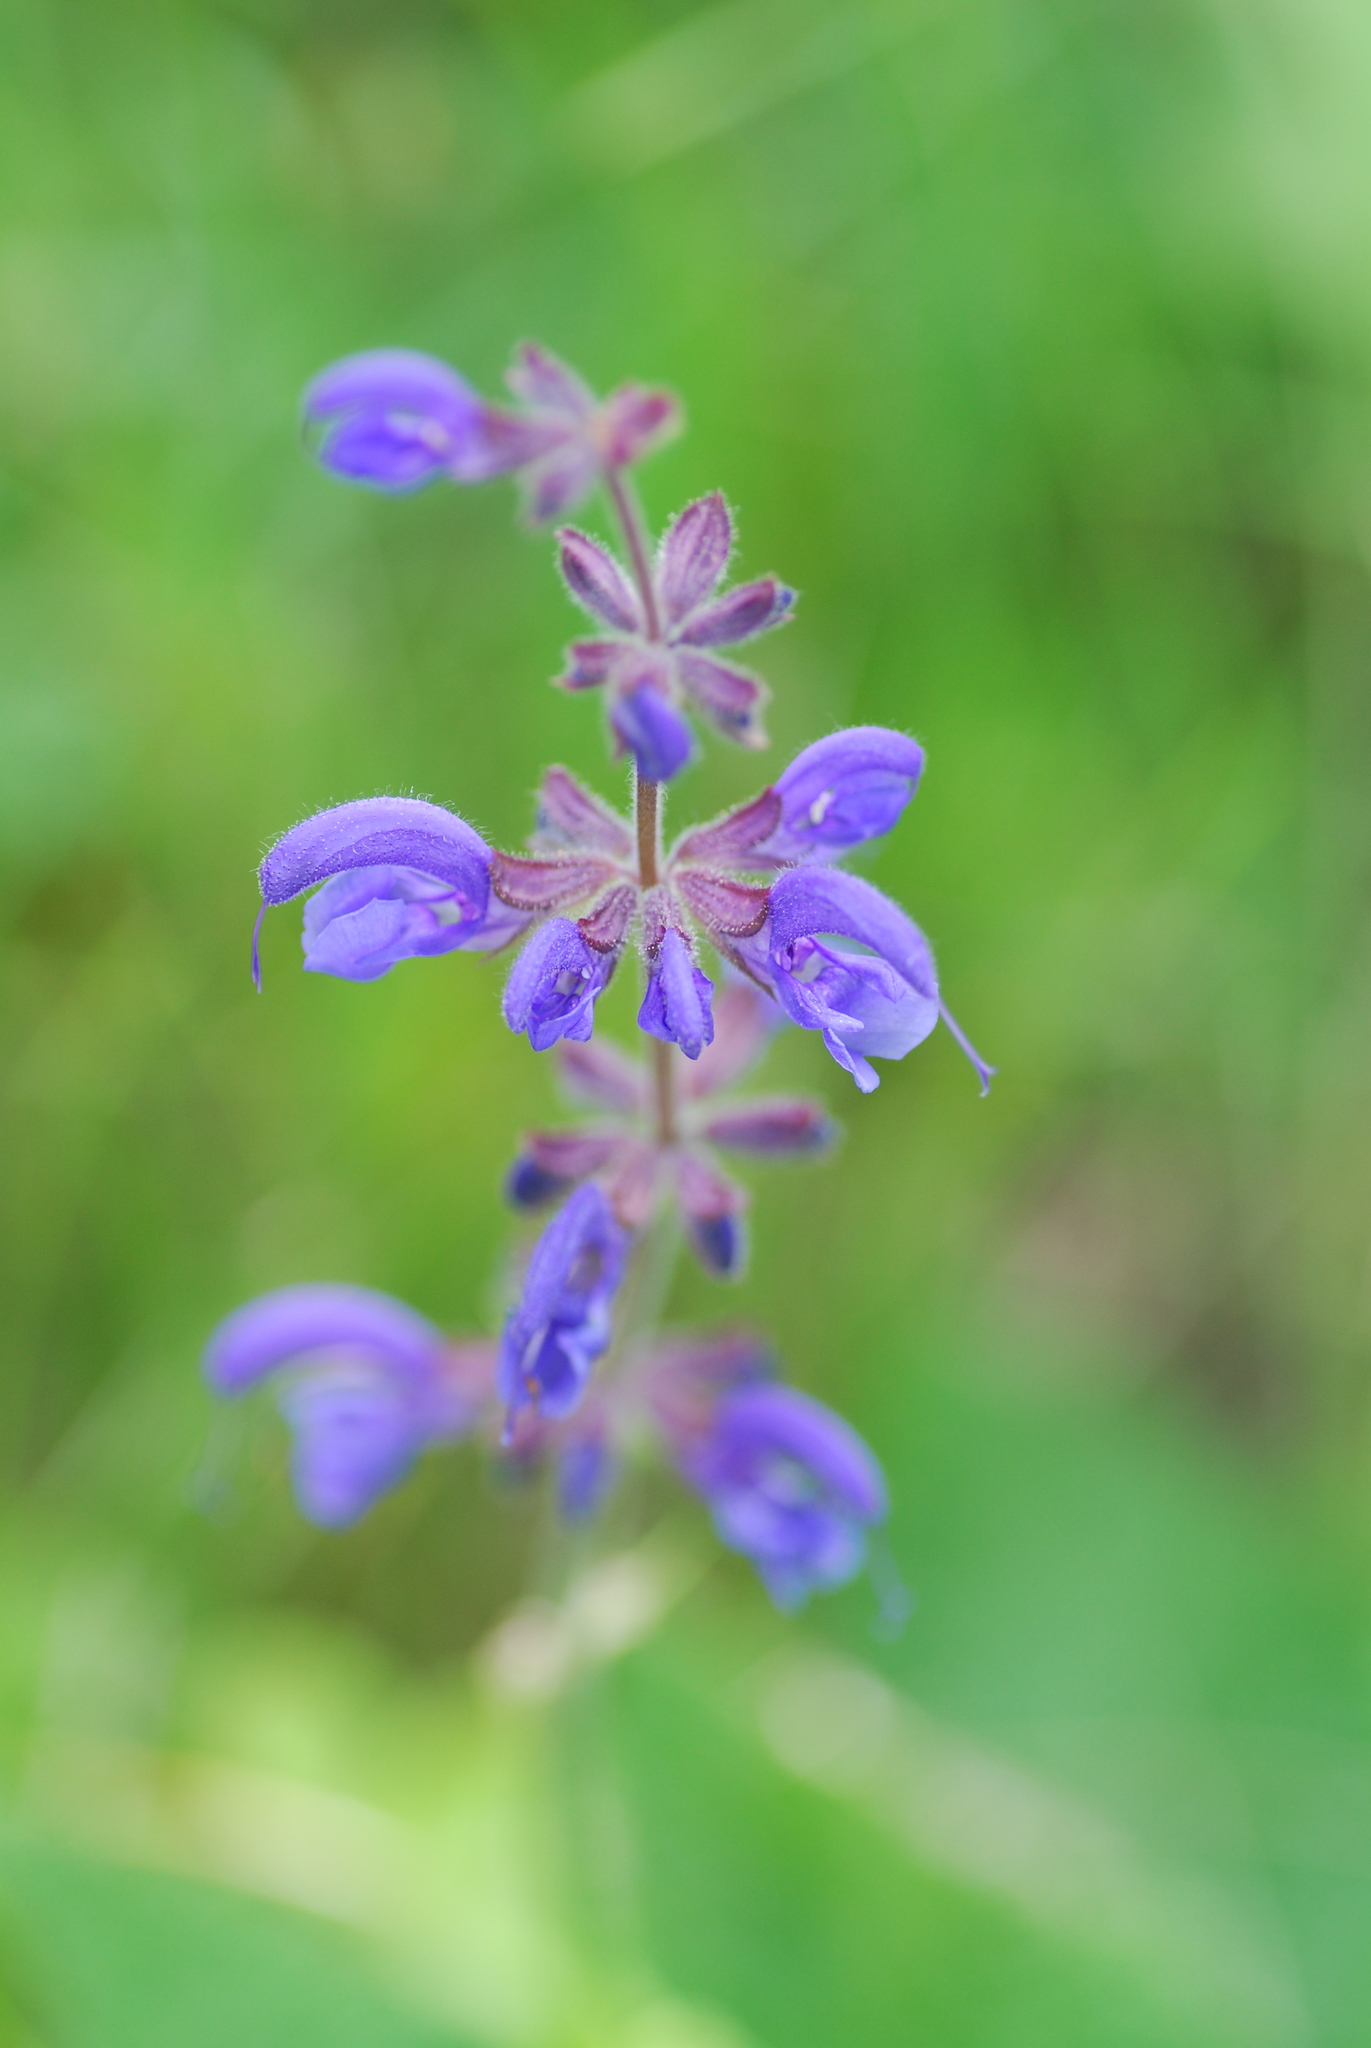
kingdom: Plantae
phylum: Tracheophyta
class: Magnoliopsida
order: Lamiales
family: Lamiaceae
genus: Salvia
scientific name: Salvia pratensis
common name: Meadow sage
